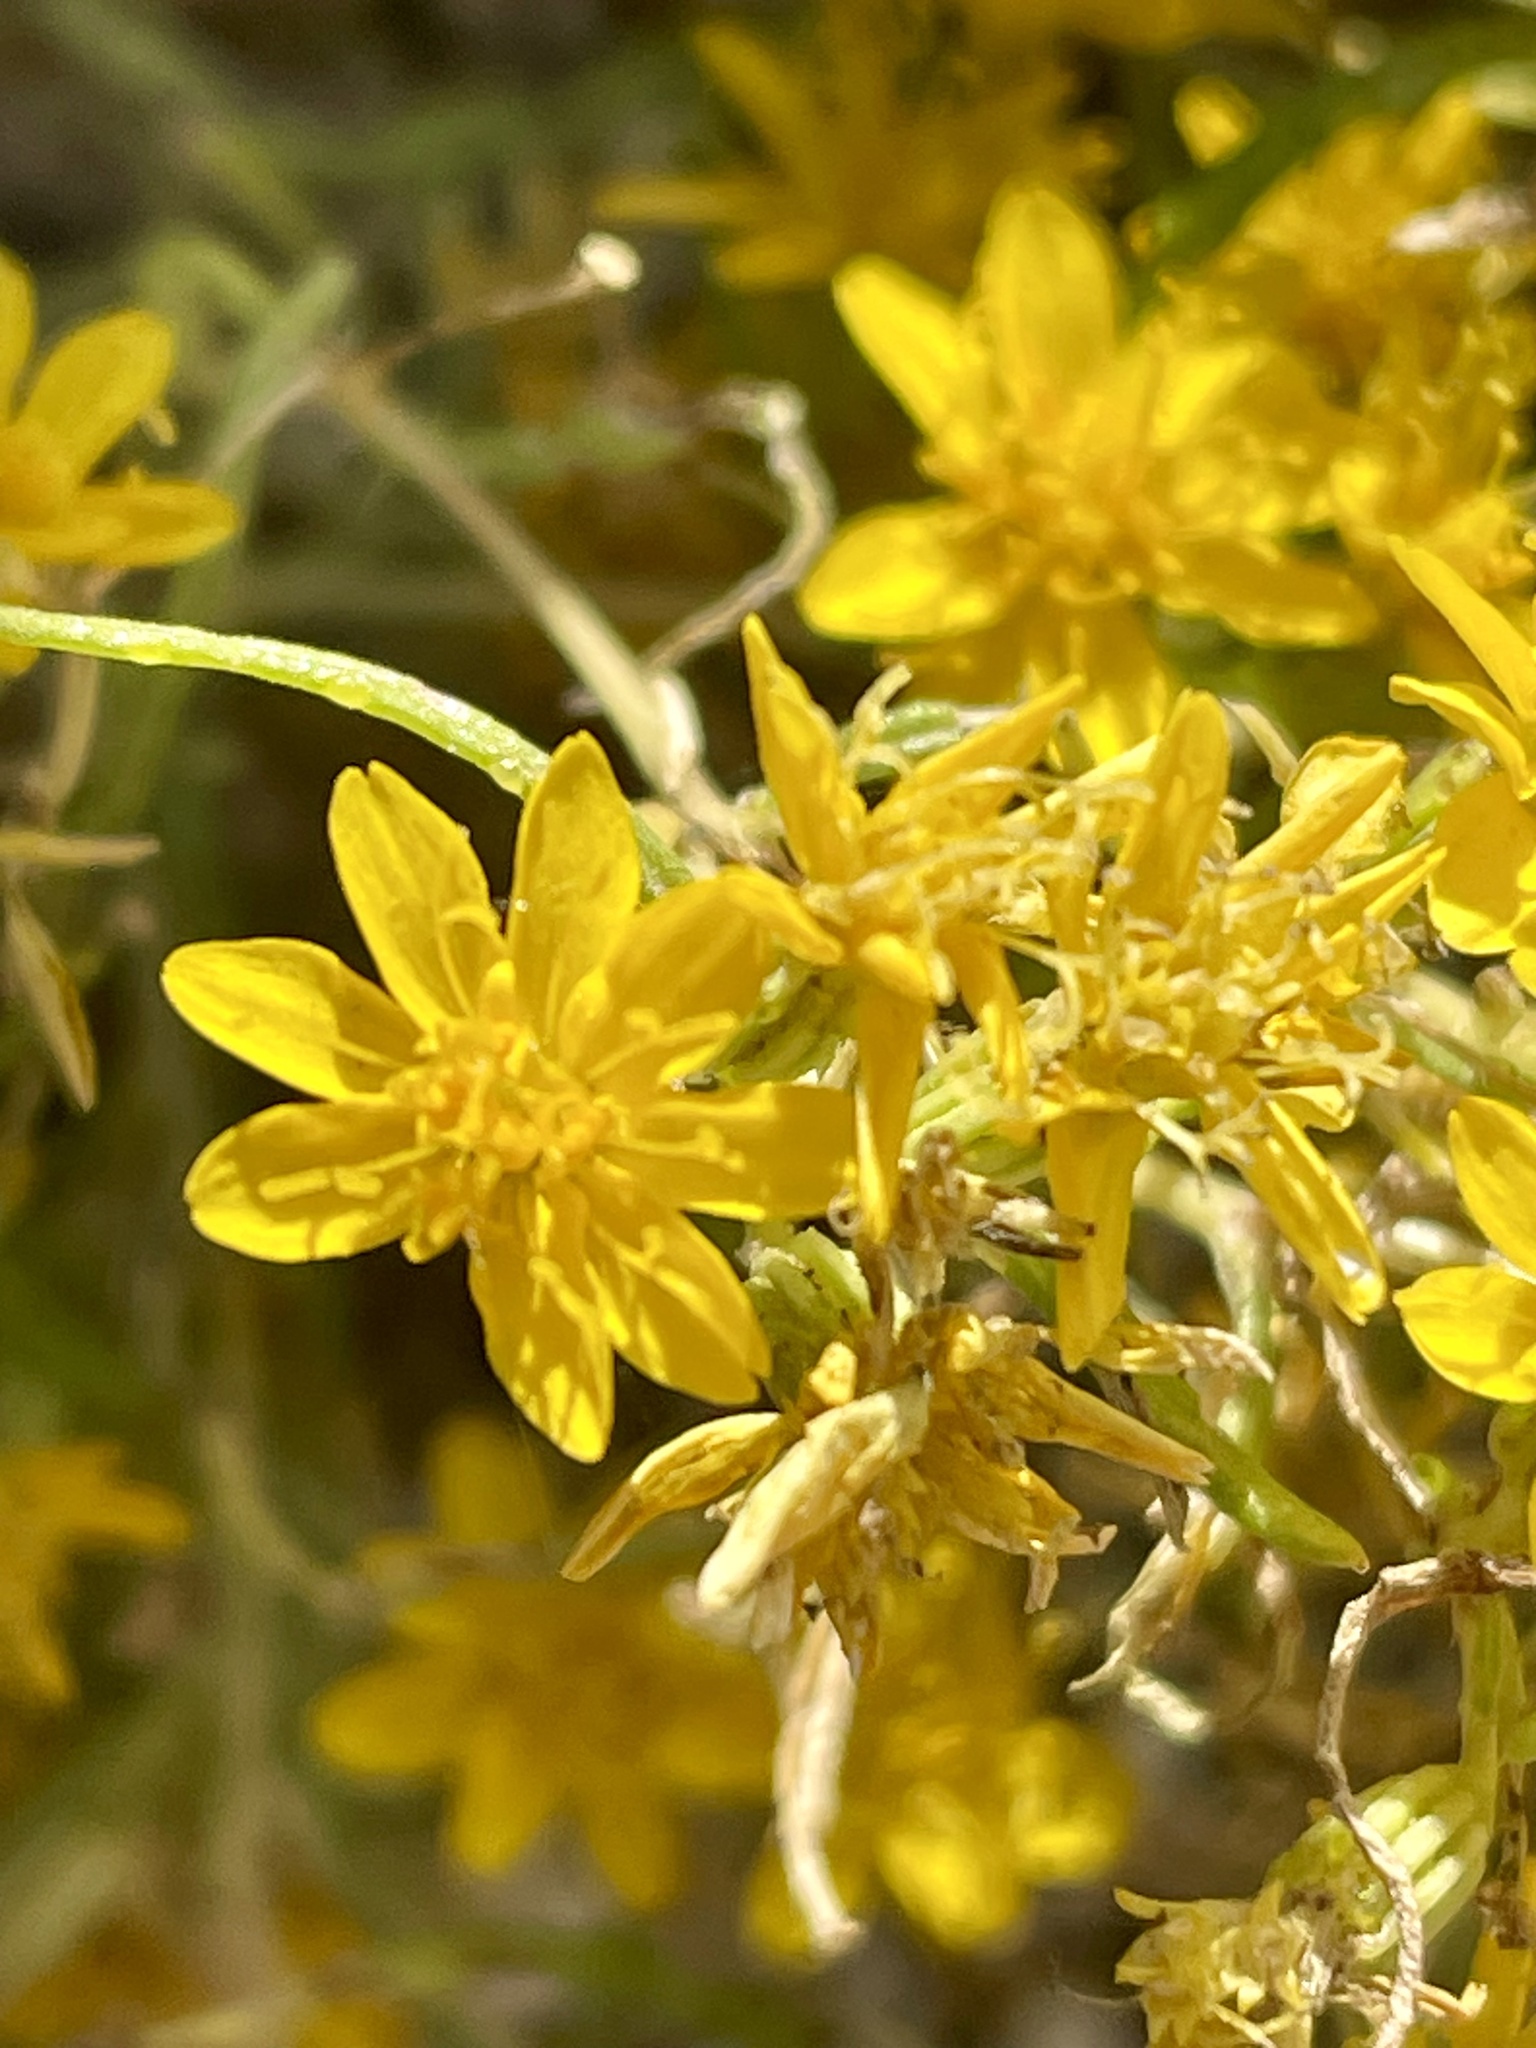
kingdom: Plantae
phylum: Tracheophyta
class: Magnoliopsida
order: Asterales
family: Asteraceae
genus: Pectis
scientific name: Pectis papposa
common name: Many-bristle chinchweed
